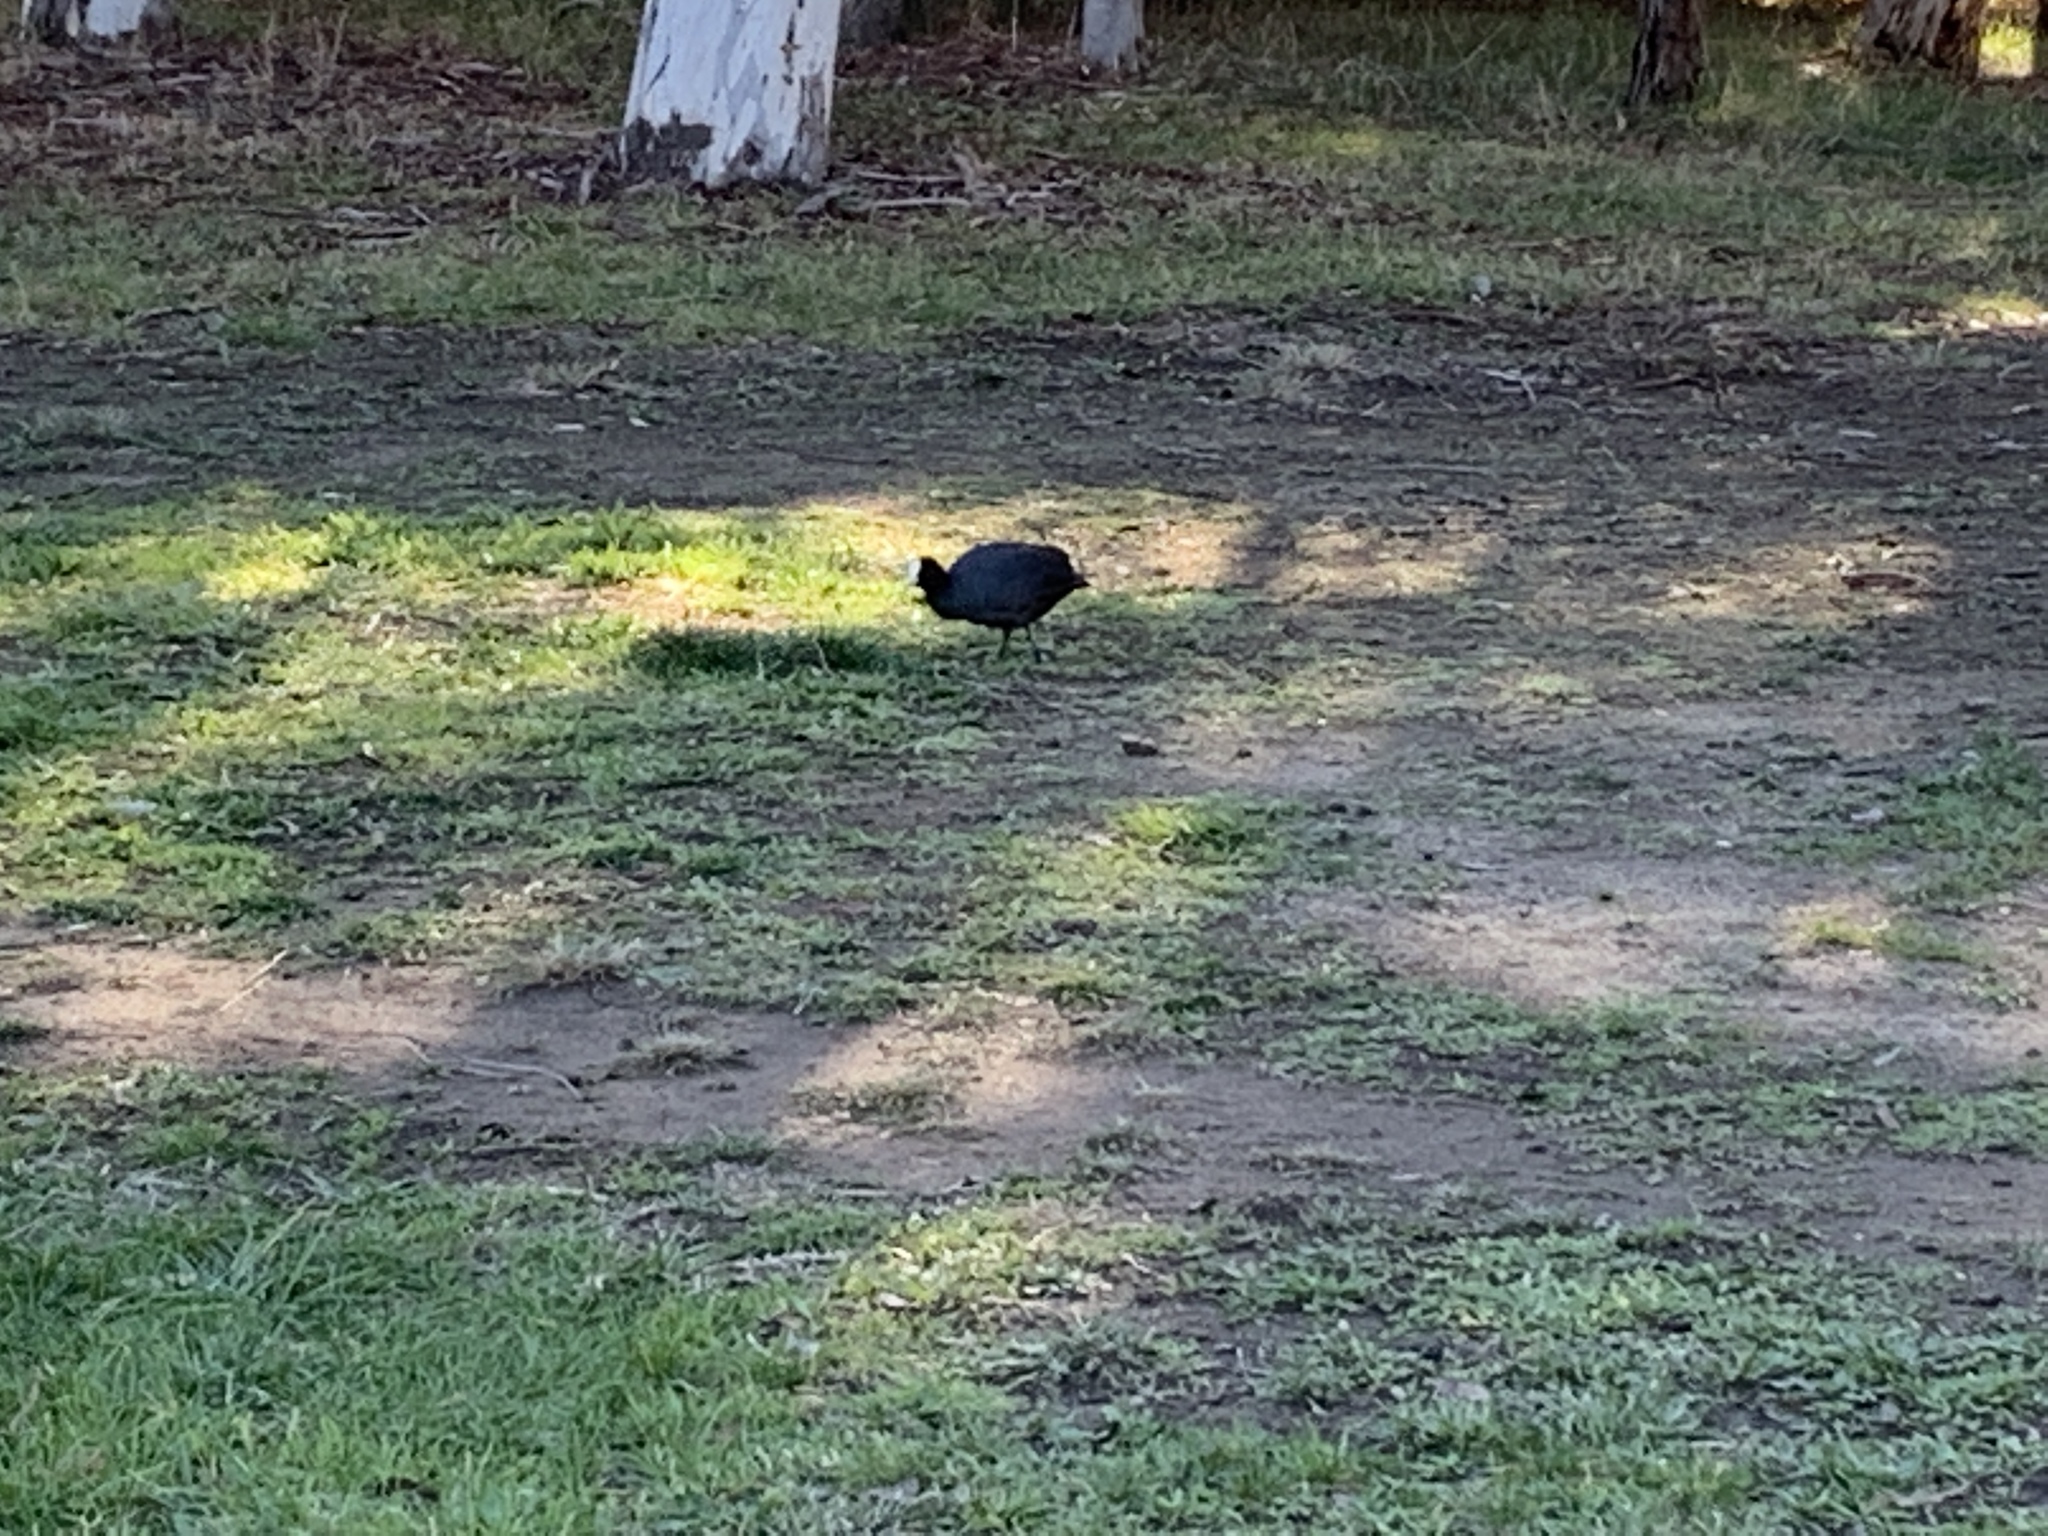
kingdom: Animalia
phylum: Chordata
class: Aves
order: Gruiformes
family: Rallidae
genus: Fulica
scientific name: Fulica atra
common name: Eurasian coot
